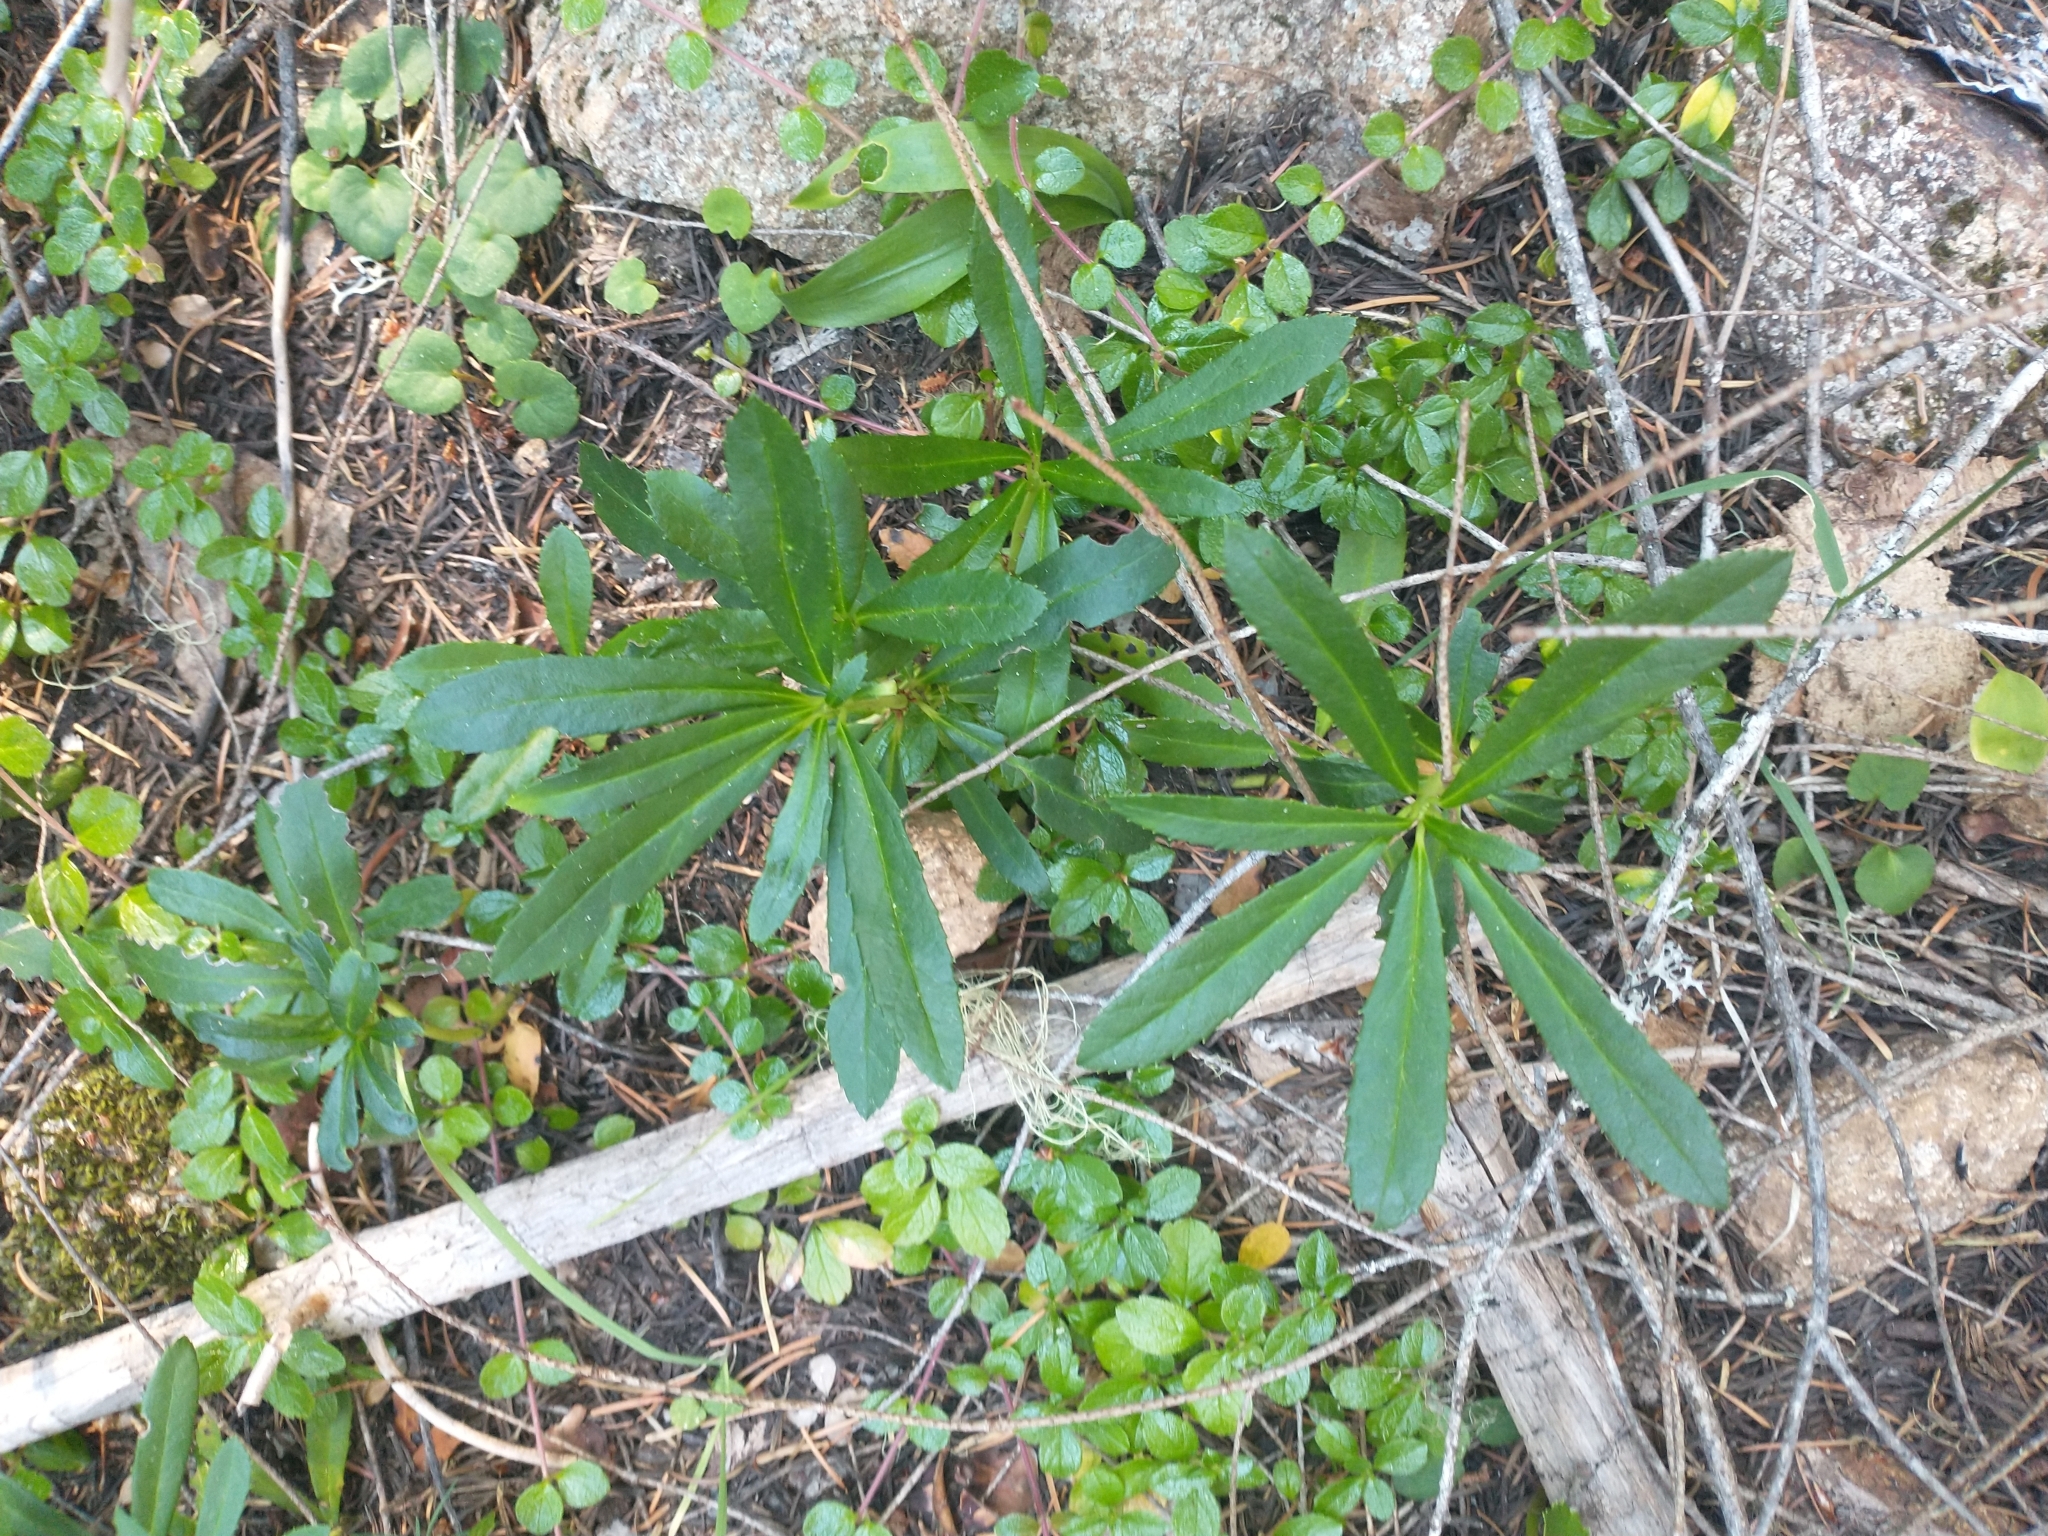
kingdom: Plantae
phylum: Tracheophyta
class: Magnoliopsida
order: Ericales
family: Ericaceae
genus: Chimaphila
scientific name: Chimaphila umbellata
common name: Pipsissewa
